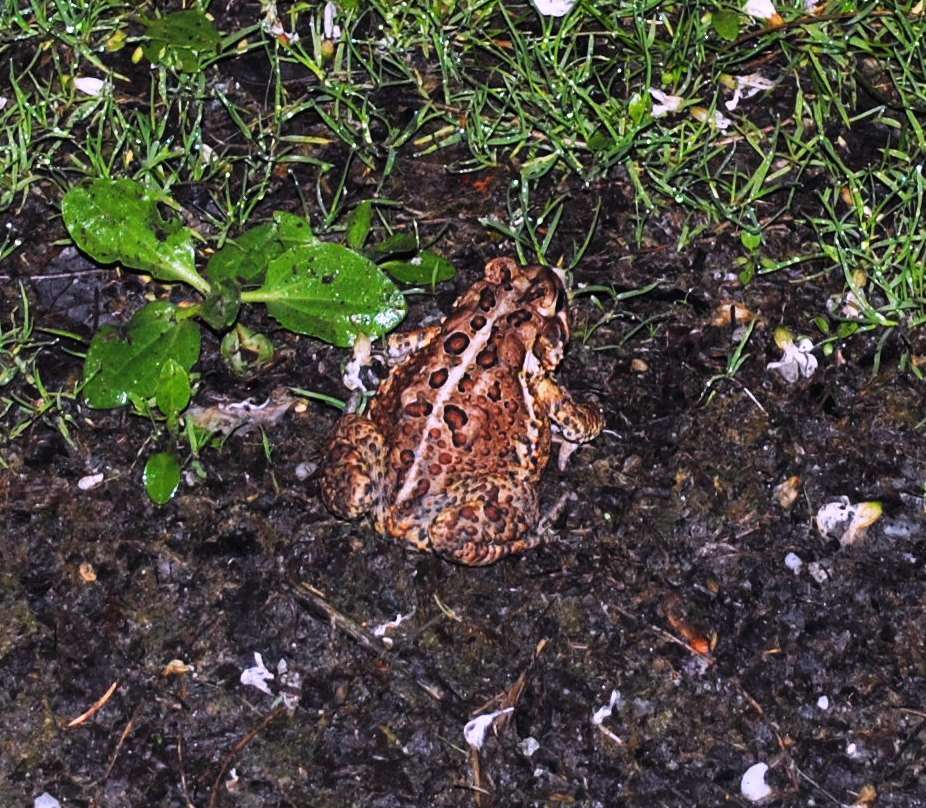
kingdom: Animalia
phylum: Chordata
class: Amphibia
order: Anura
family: Bufonidae
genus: Anaxyrus
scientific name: Anaxyrus americanus
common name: American toad
